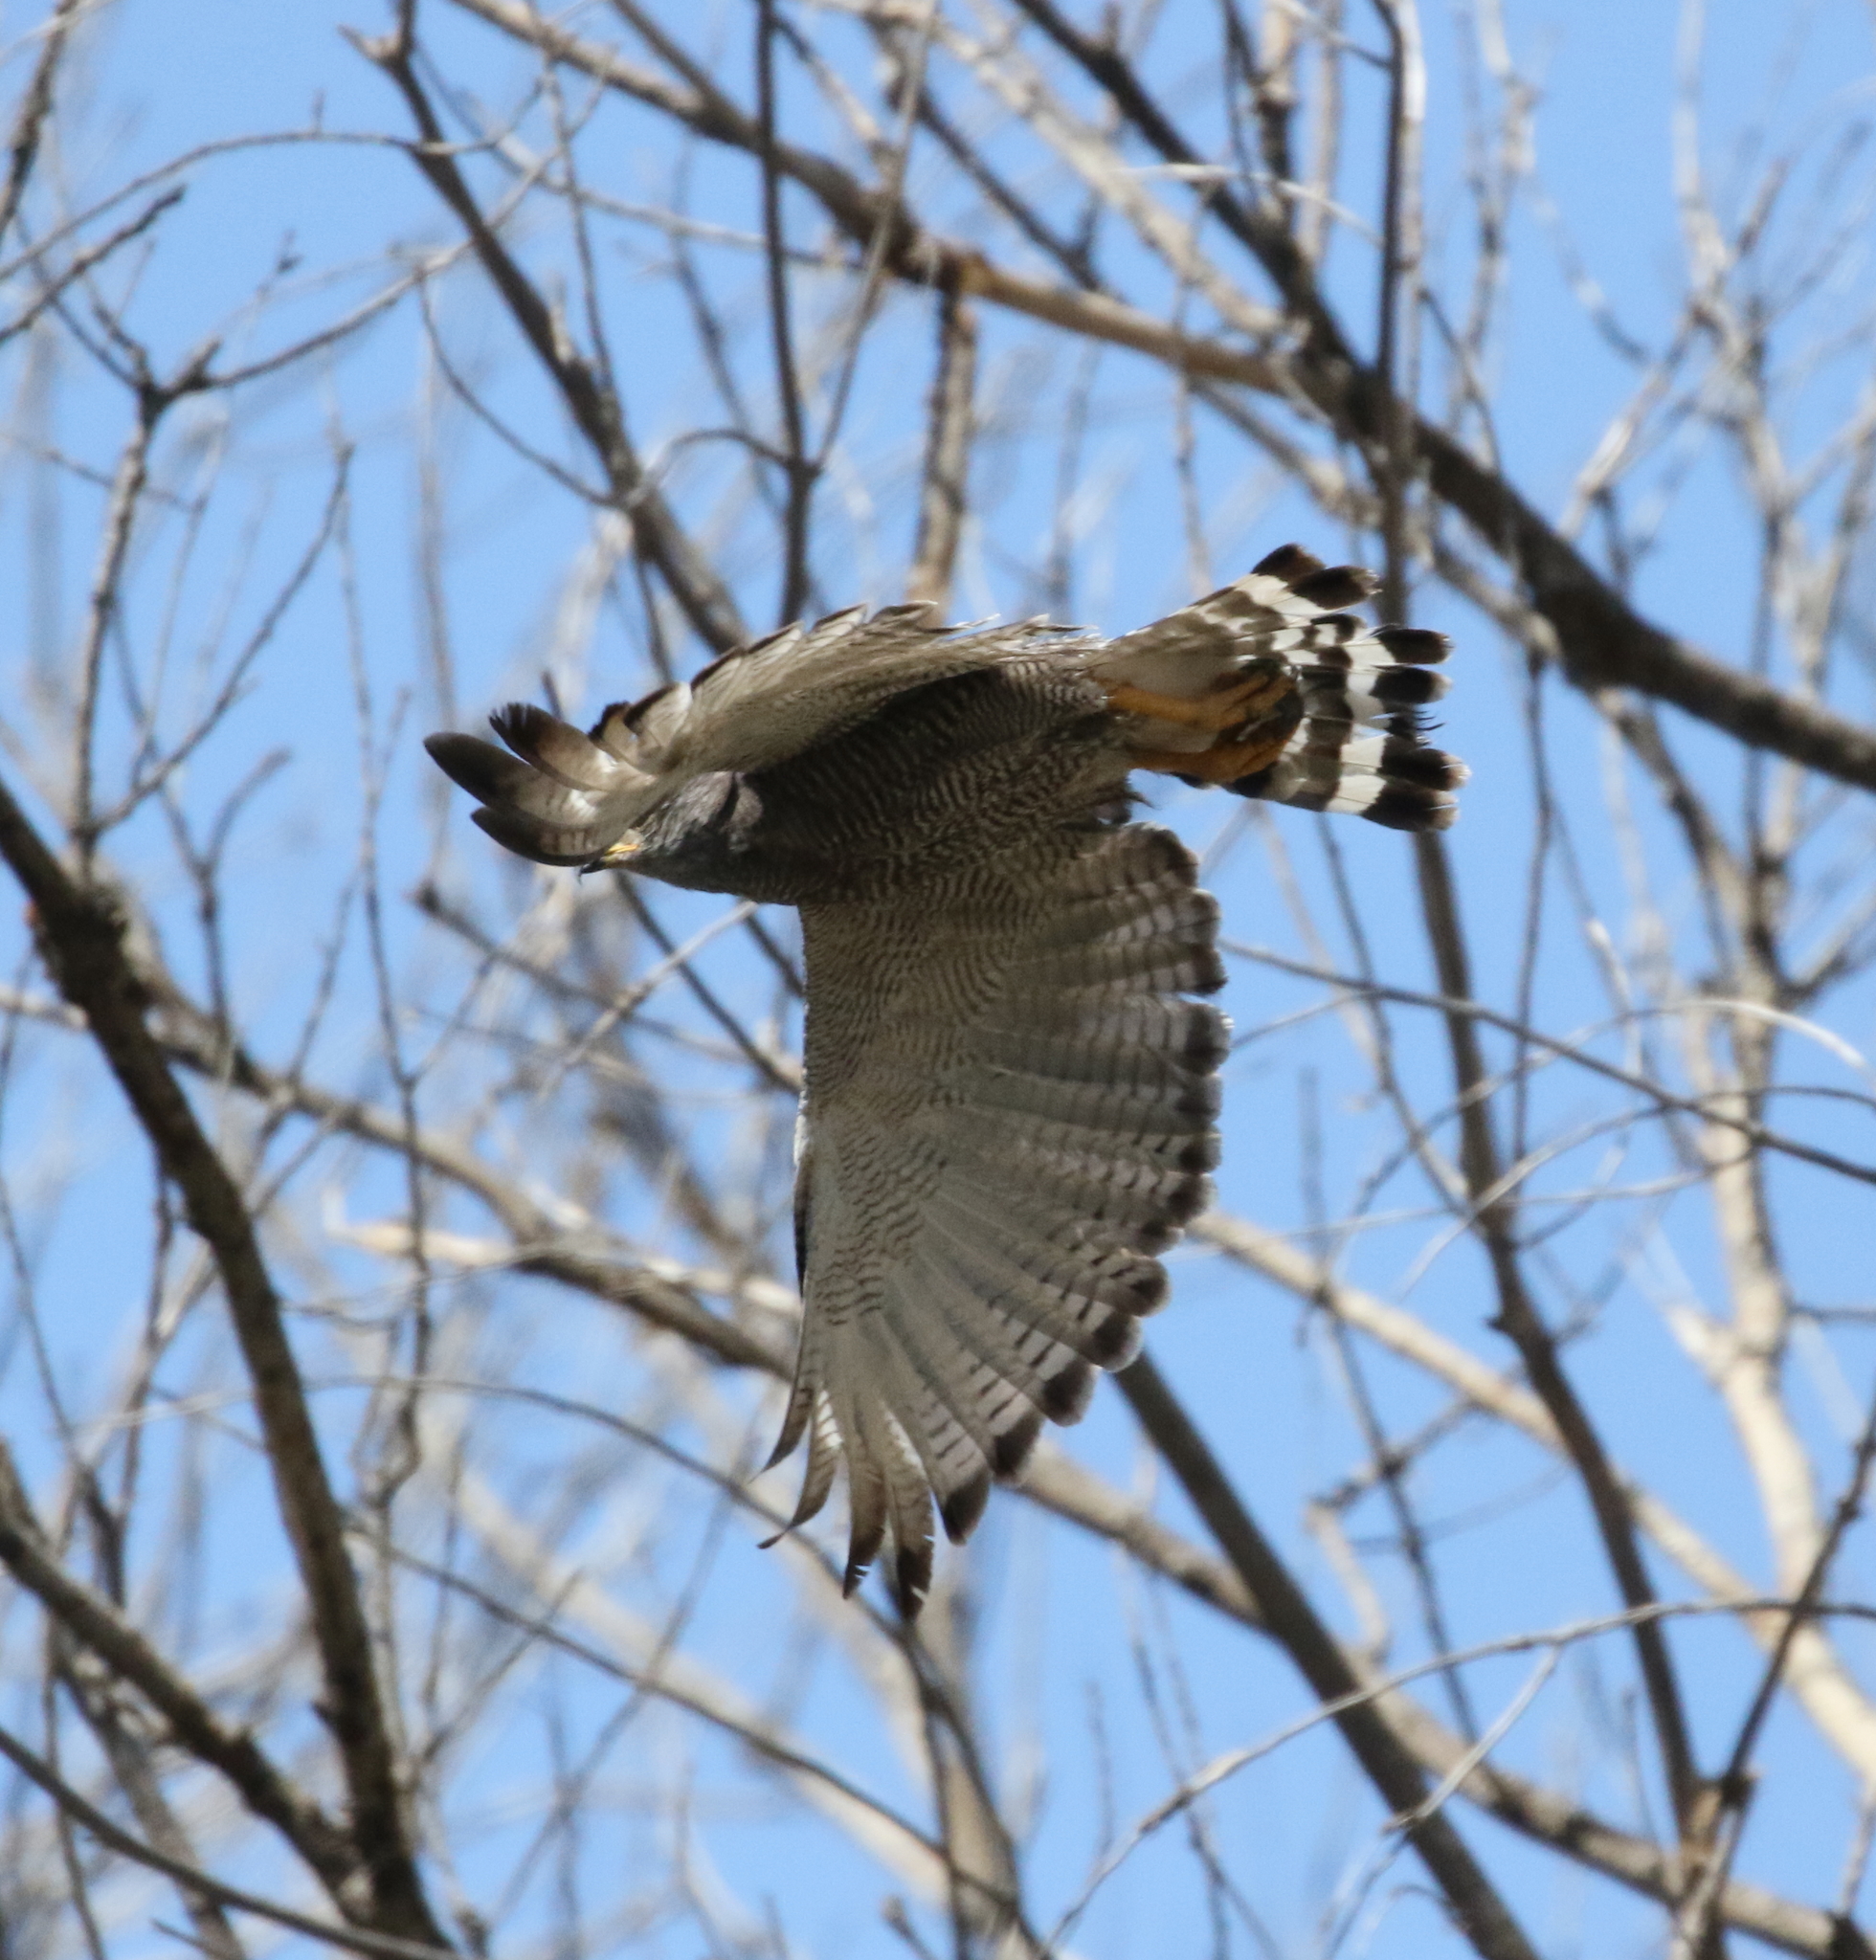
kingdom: Animalia
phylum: Chordata
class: Aves
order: Accipitriformes
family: Accipitridae
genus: Buteo
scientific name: Buteo nitidus
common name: Grey-lined hawk
